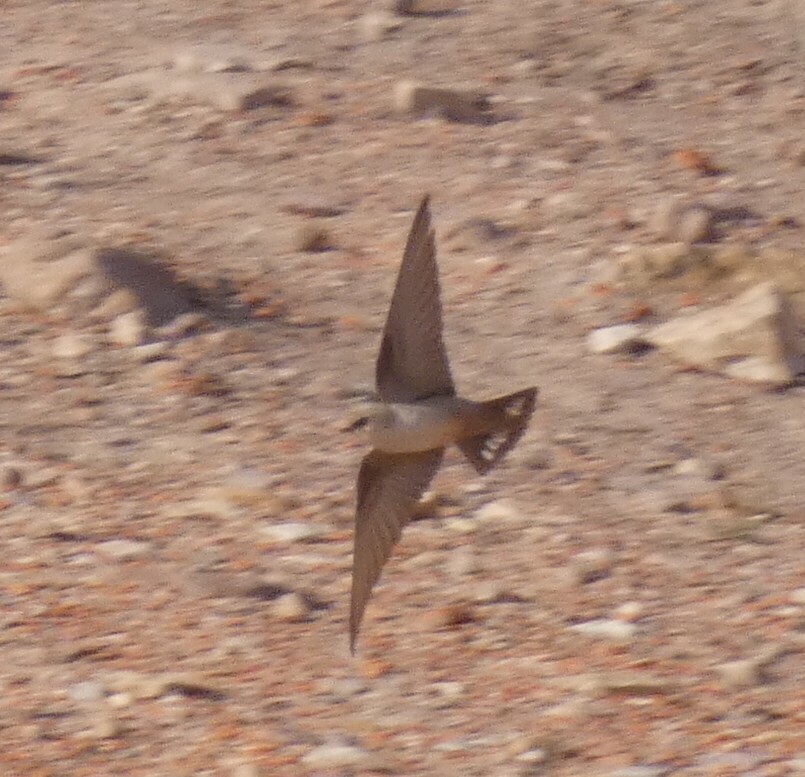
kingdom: Animalia
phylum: Chordata
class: Aves
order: Passeriformes
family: Hirundinidae
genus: Ptyonoprogne
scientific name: Ptyonoprogne fuligula
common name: Rock martin
